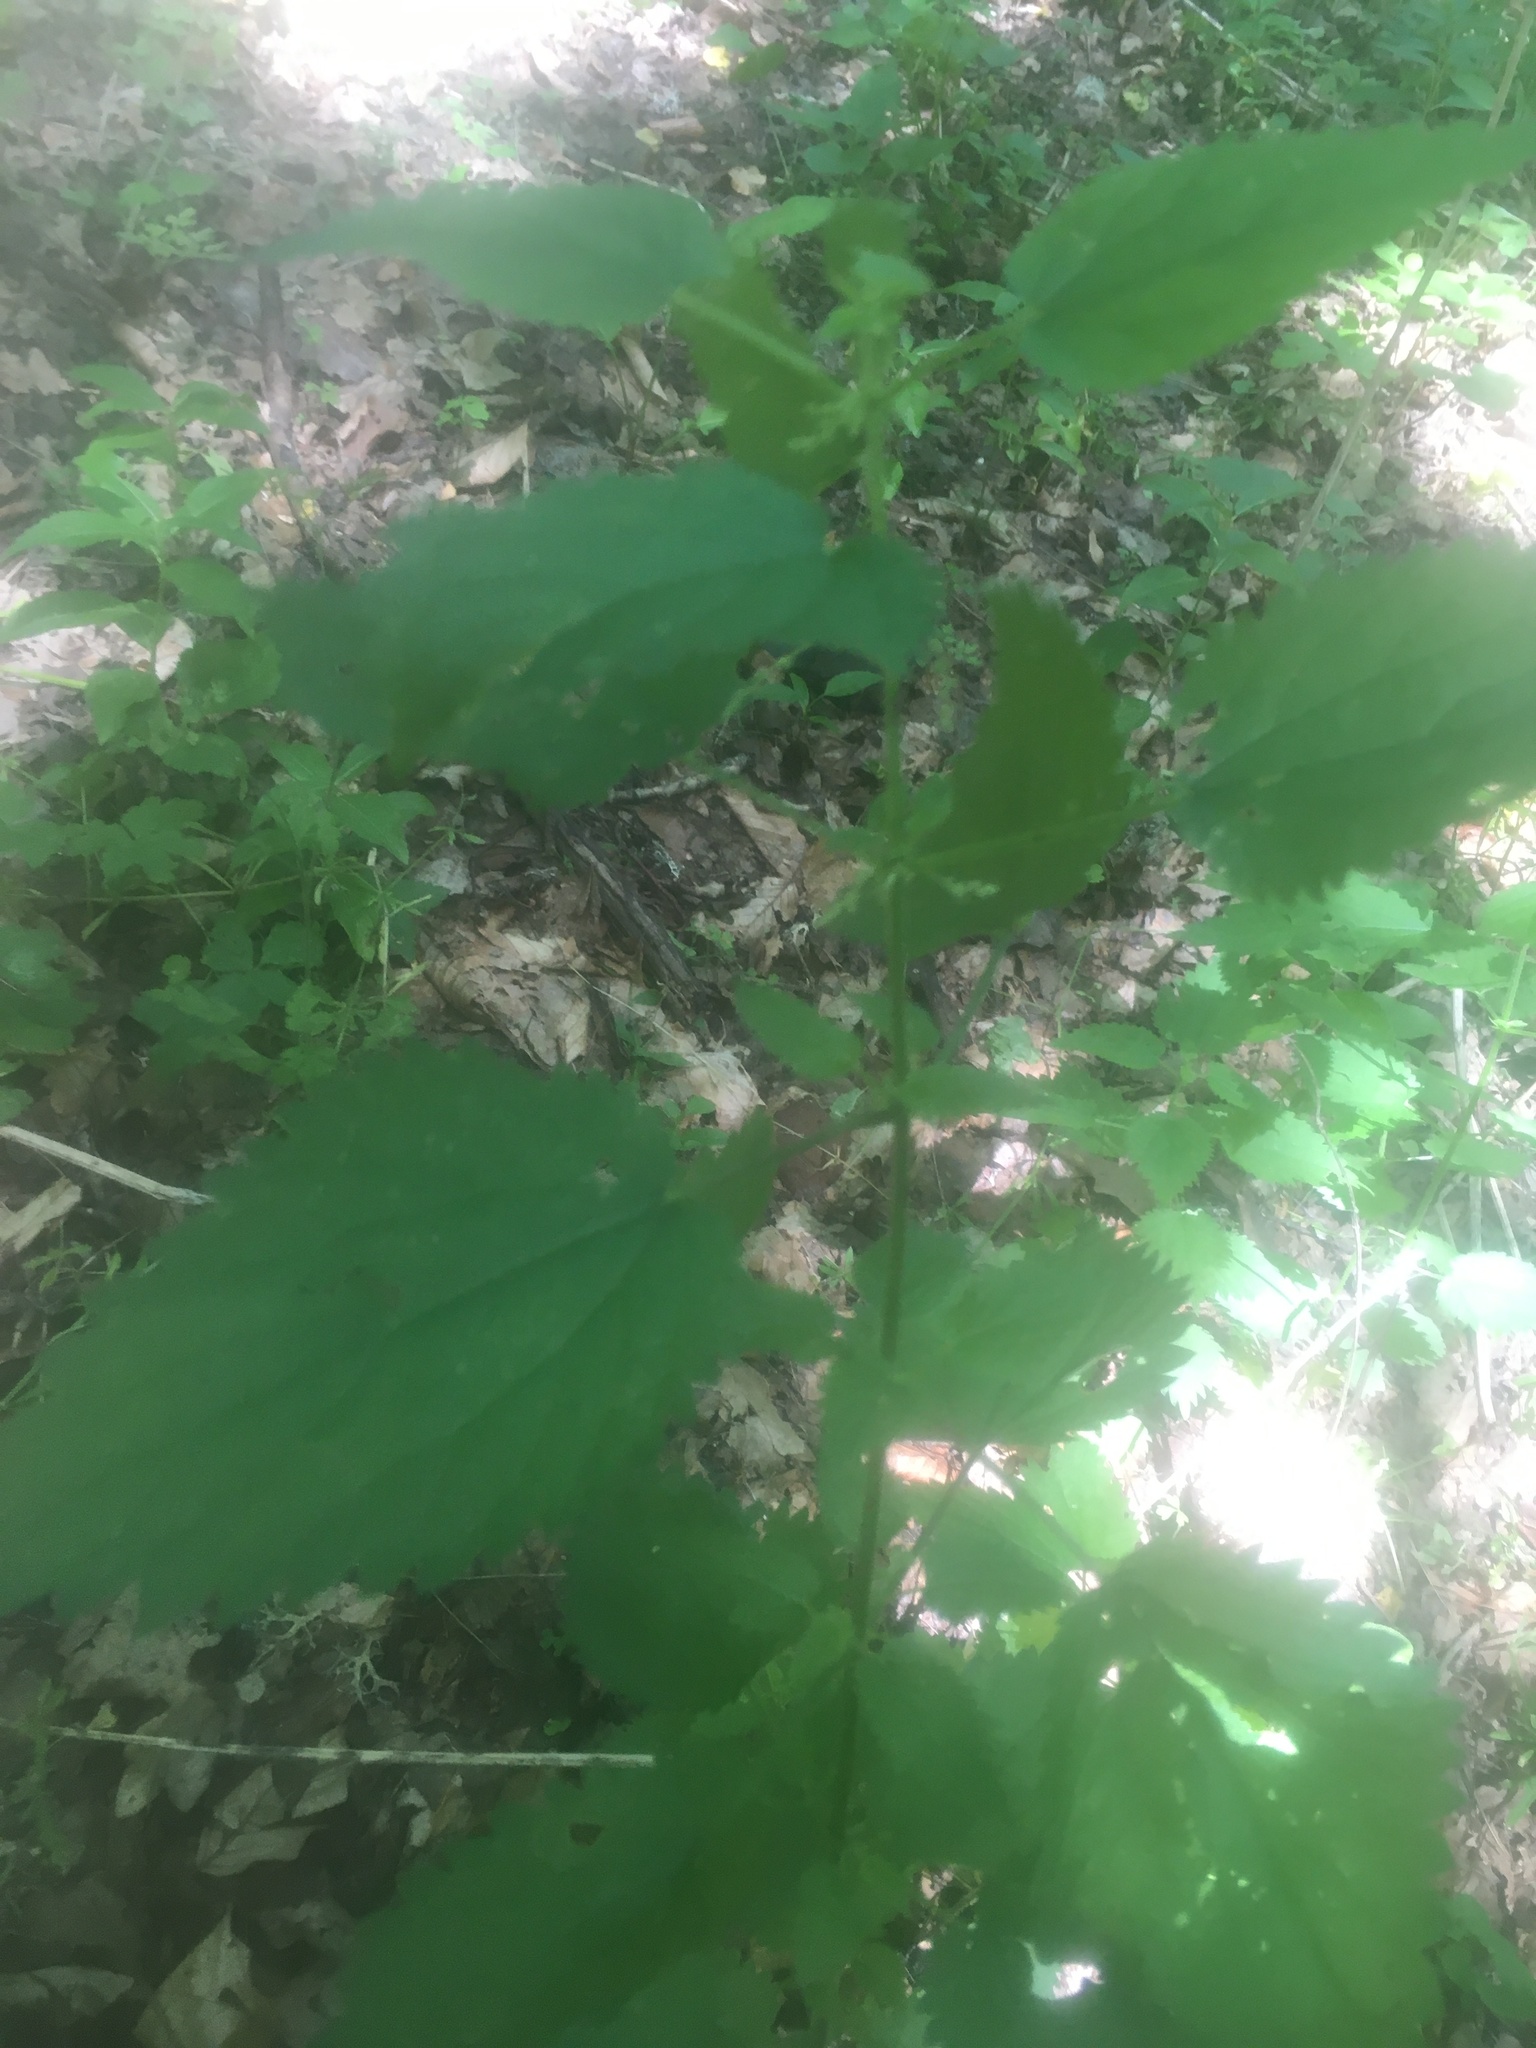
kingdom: Plantae
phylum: Tracheophyta
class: Magnoliopsida
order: Rosales
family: Urticaceae
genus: Urtica
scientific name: Urtica dioica
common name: Common nettle
